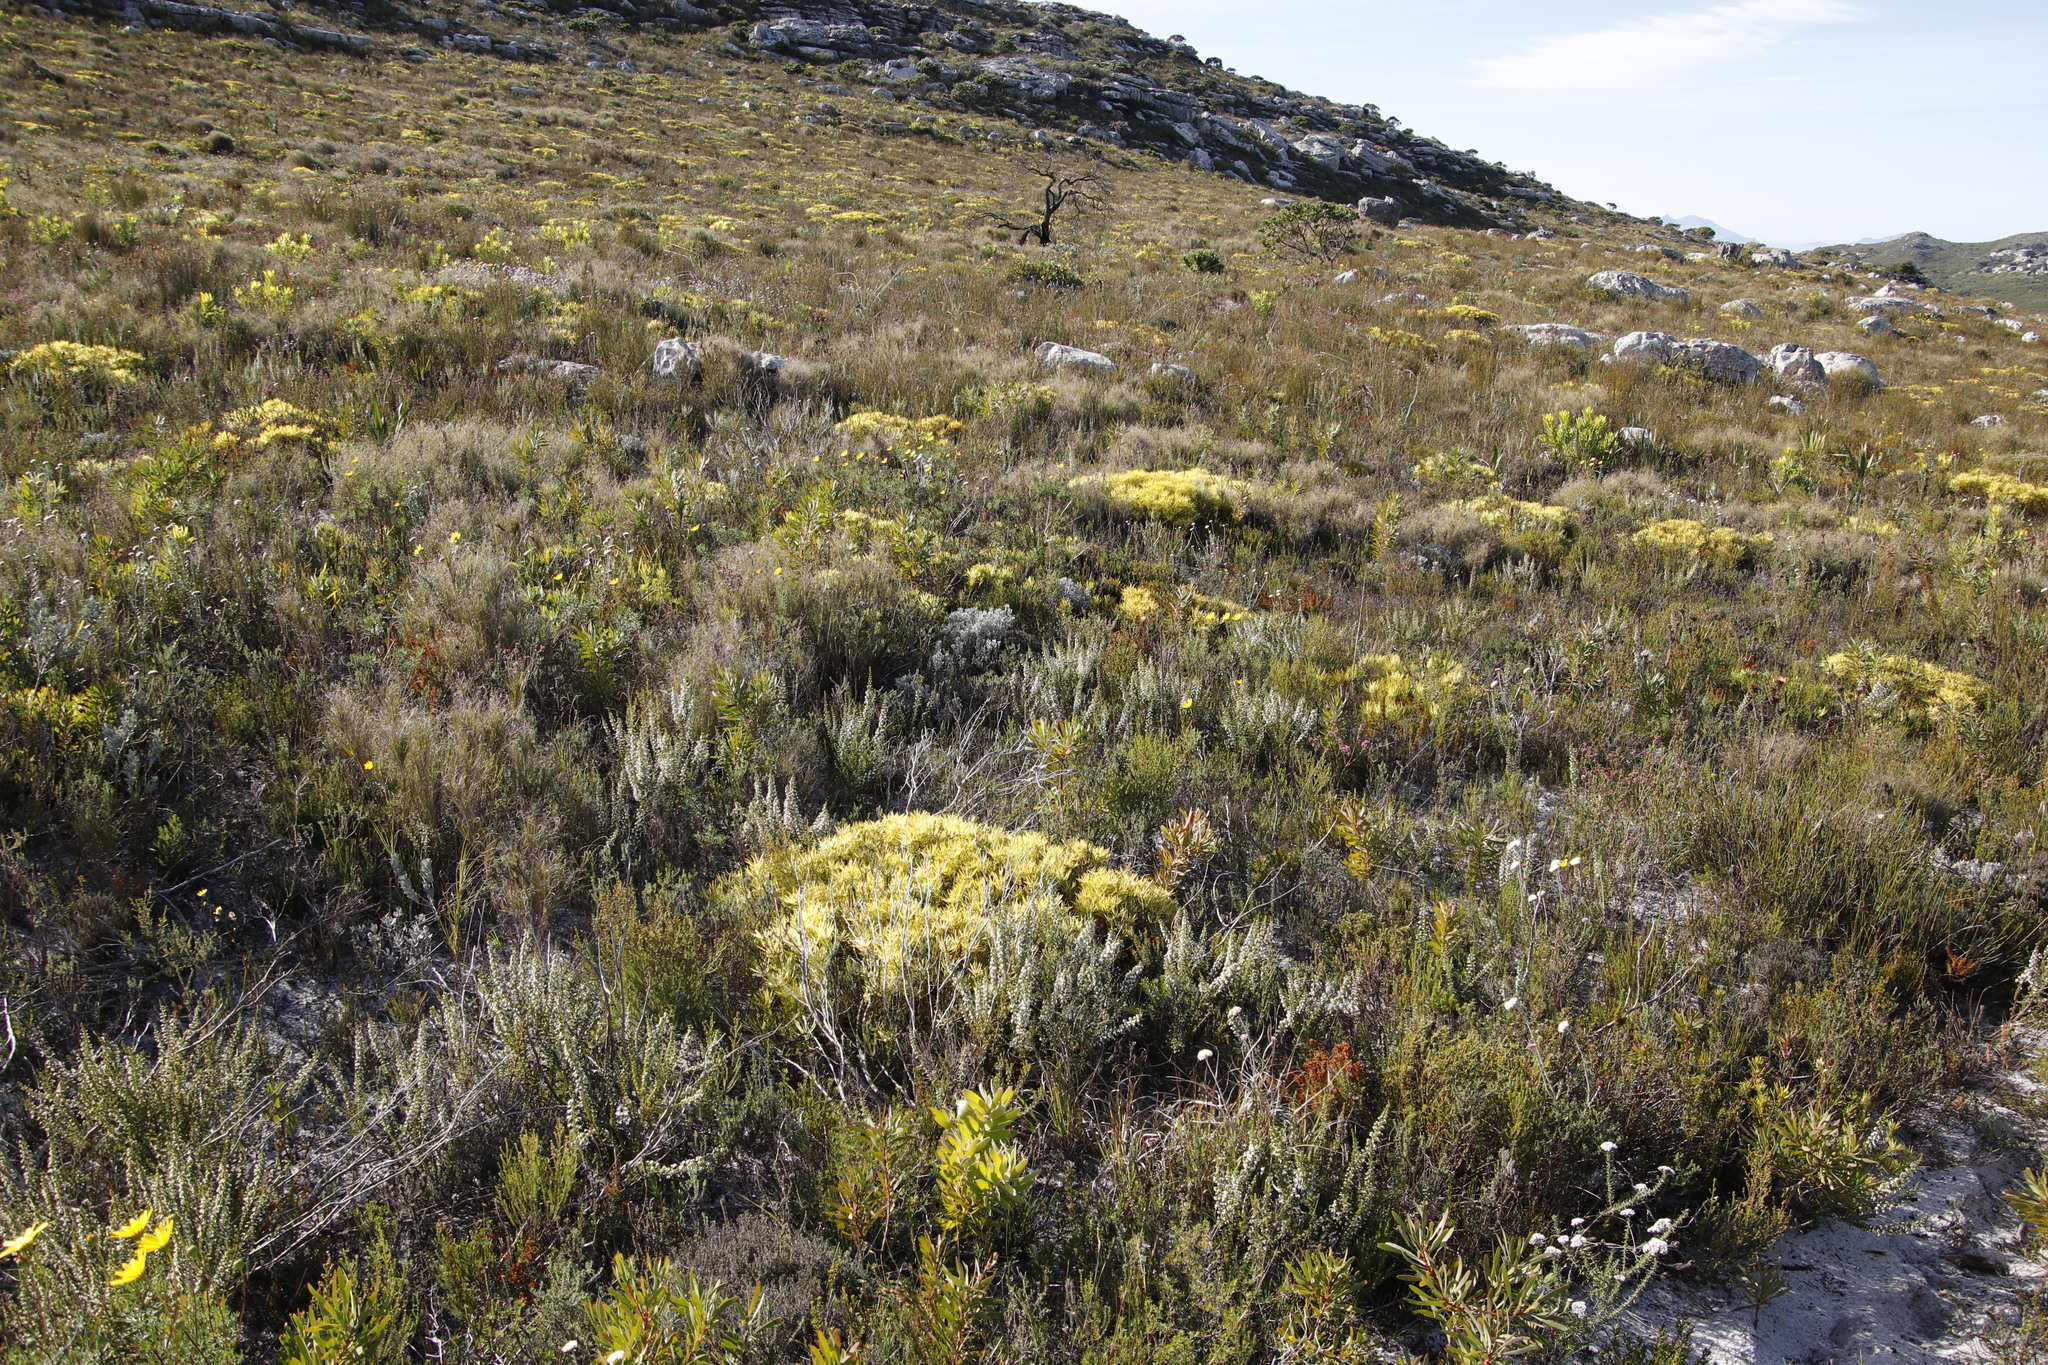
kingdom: Plantae
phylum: Tracheophyta
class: Magnoliopsida
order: Proteales
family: Proteaceae
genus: Leucadendron
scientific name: Leucadendron salignum
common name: Common sunshine conebush
